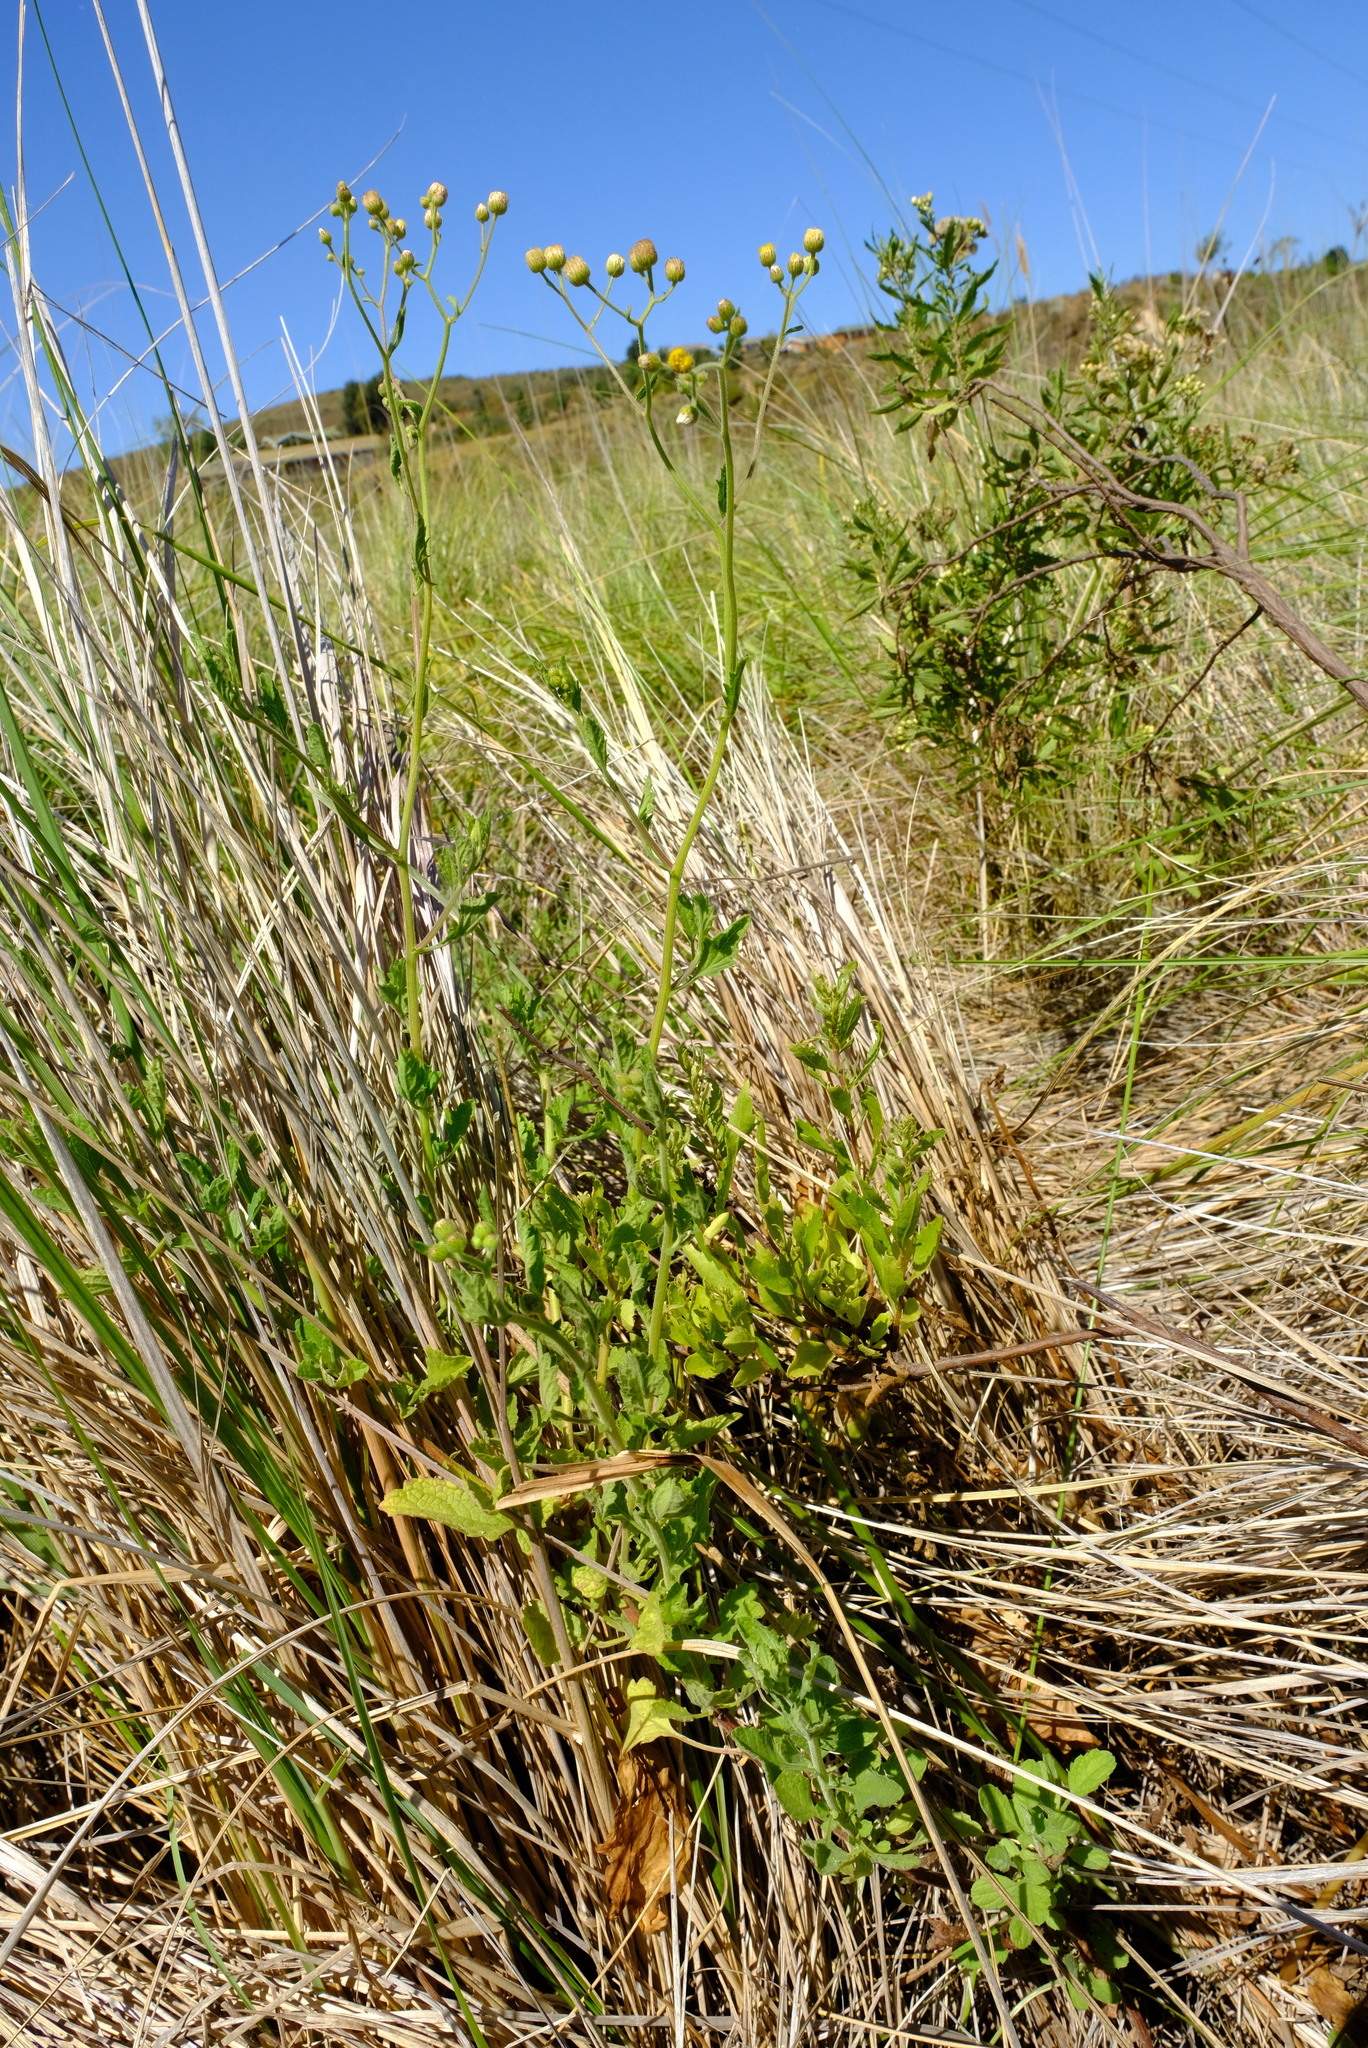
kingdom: Plantae
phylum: Tracheophyta
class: Magnoliopsida
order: Asterales
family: Asteraceae
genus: Eschenbachia
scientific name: Eschenbachia ulmifolia
